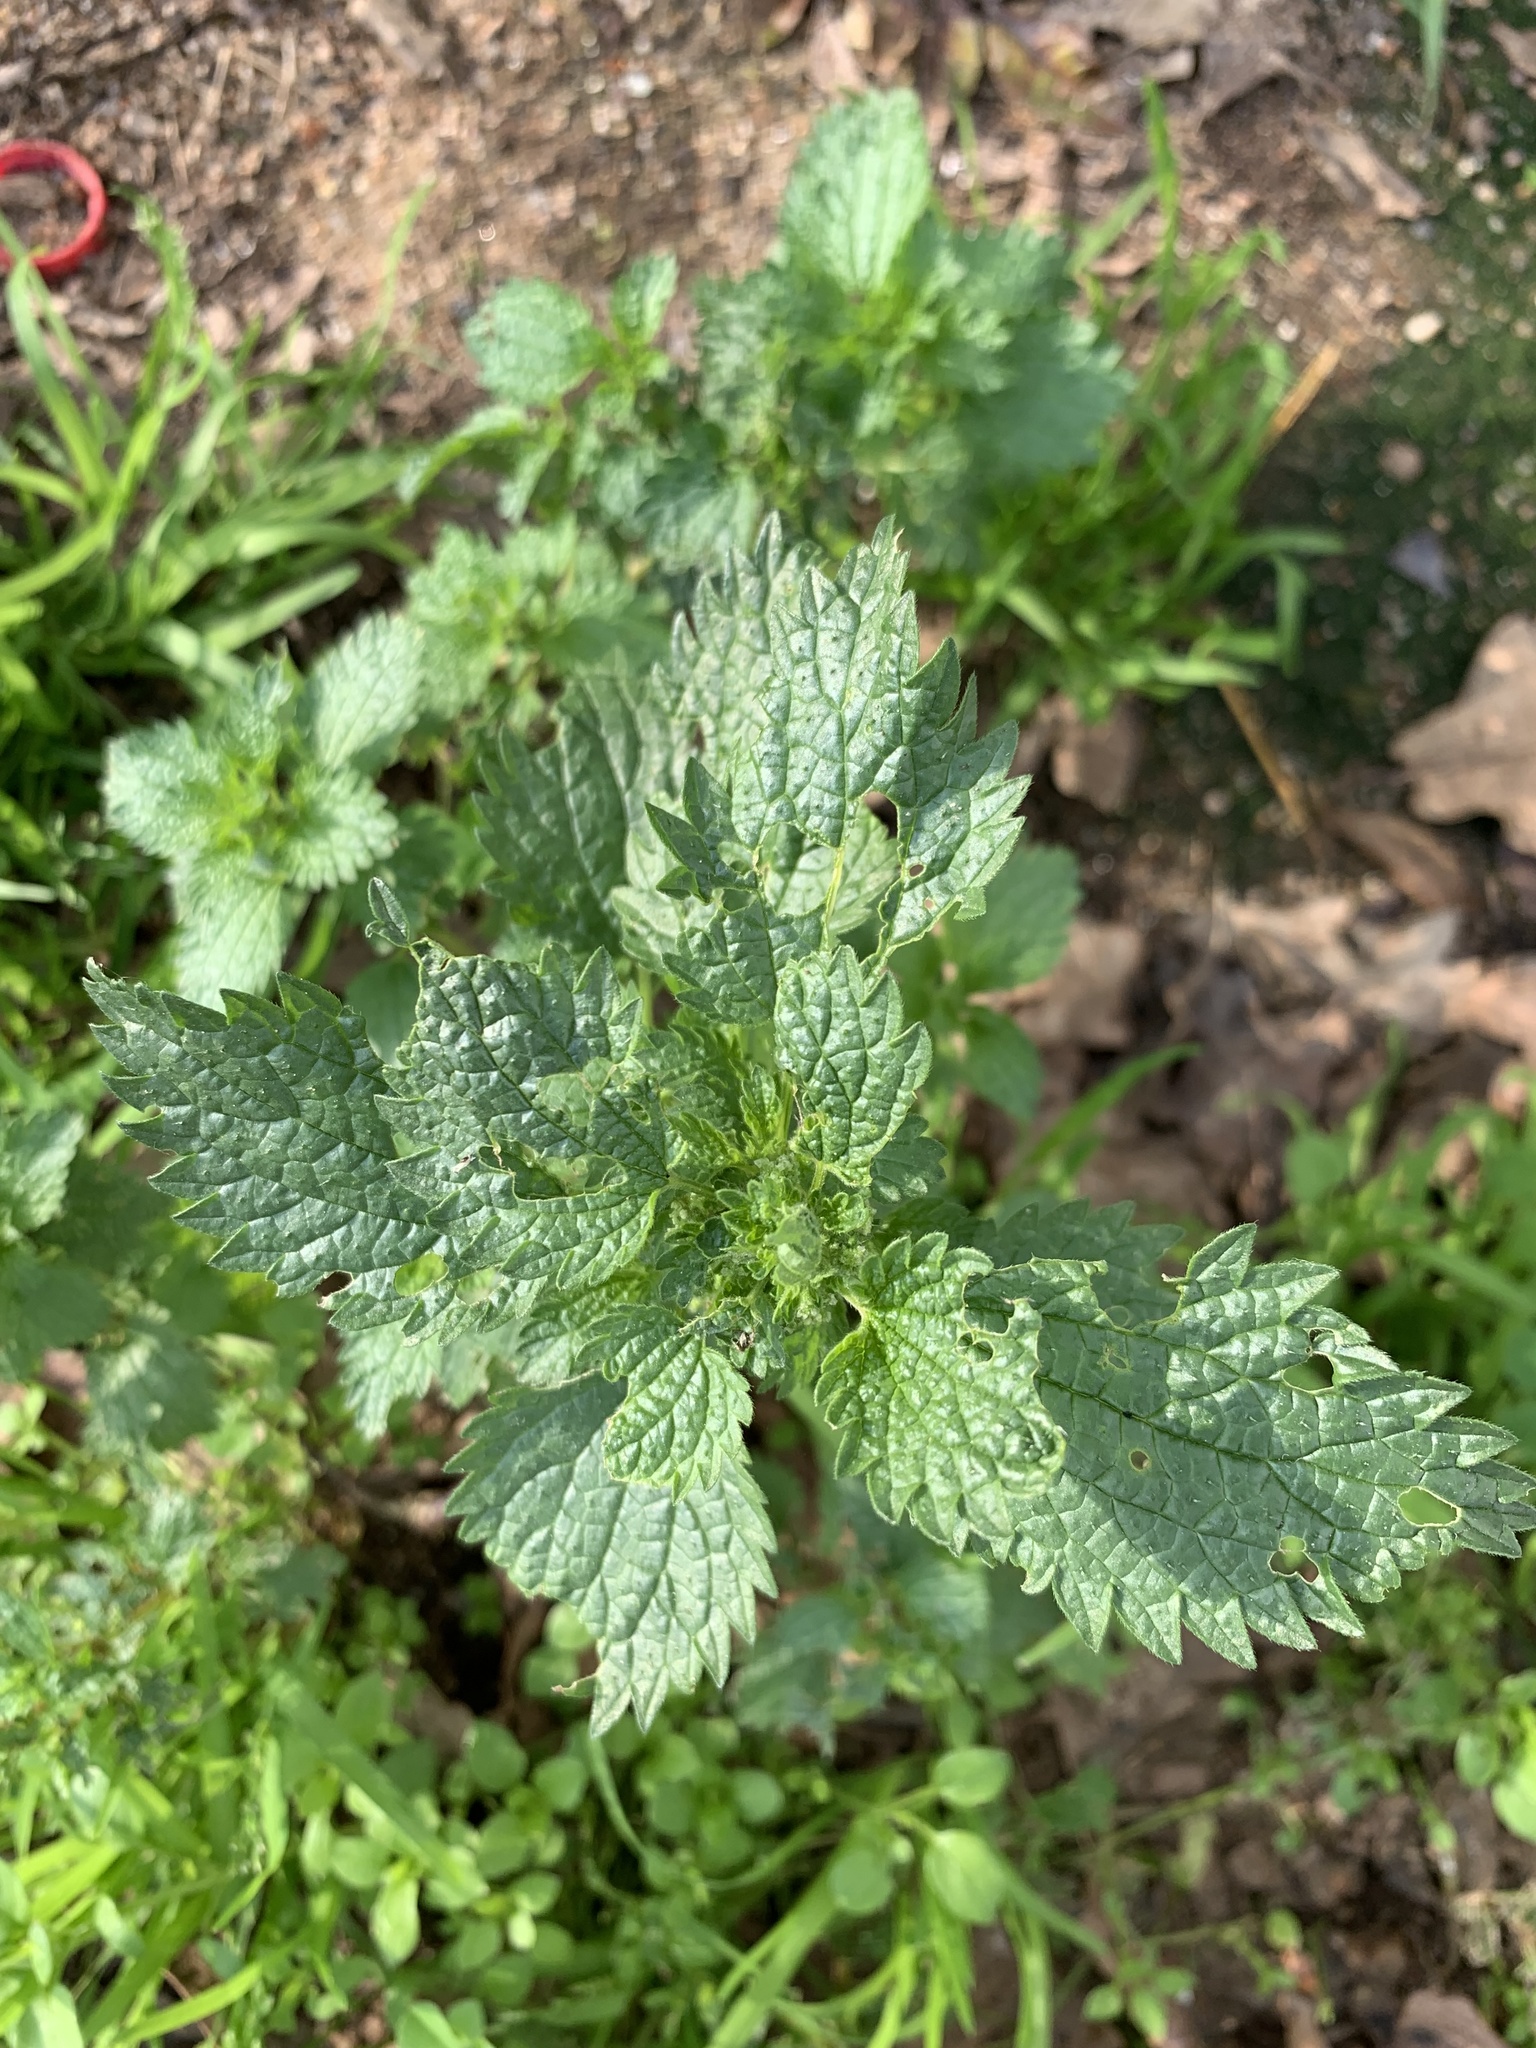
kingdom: Plantae
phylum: Tracheophyta
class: Magnoliopsida
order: Rosales
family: Urticaceae
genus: Urtica
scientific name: Urtica urens
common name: Dwarf nettle
